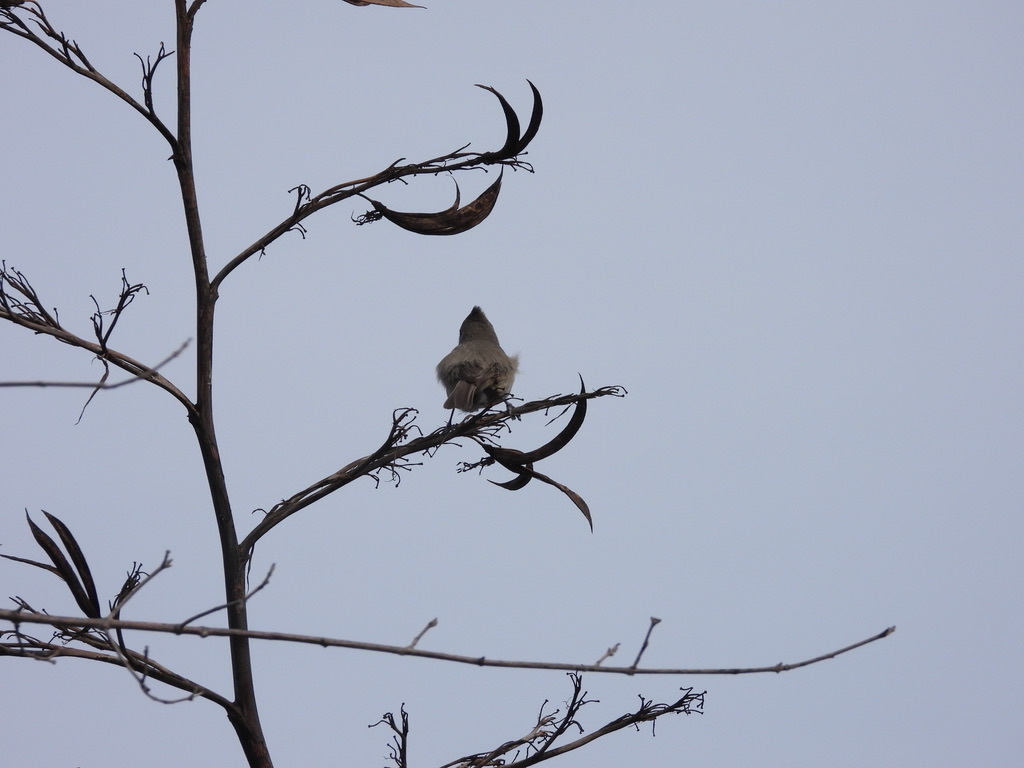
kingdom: Animalia
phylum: Chordata
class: Aves
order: Passeriformes
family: Paridae
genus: Baeolophus
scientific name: Baeolophus inornatus
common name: Oak titmouse
